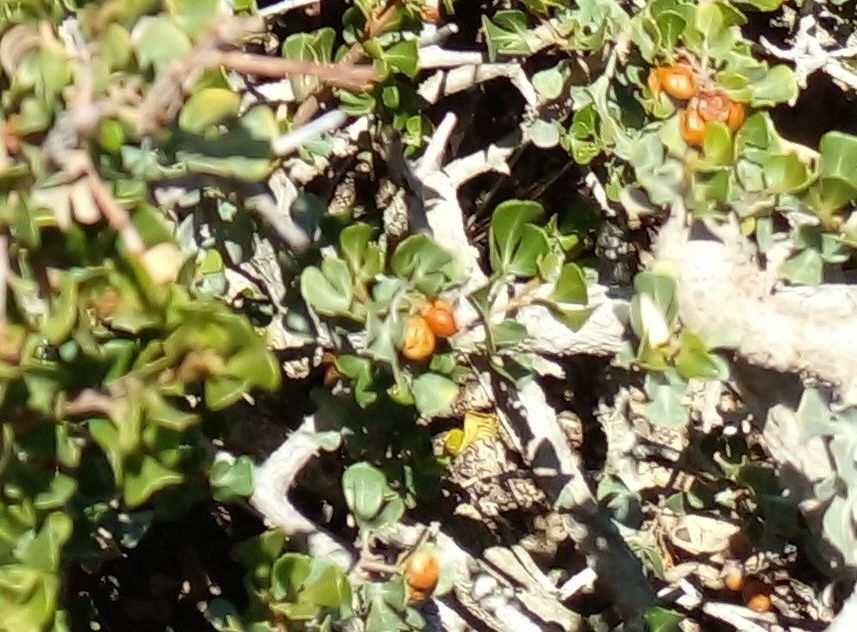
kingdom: Plantae
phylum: Tracheophyta
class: Magnoliopsida
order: Sapindales
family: Anacardiaceae
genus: Searsia
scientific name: Searsia glauca
